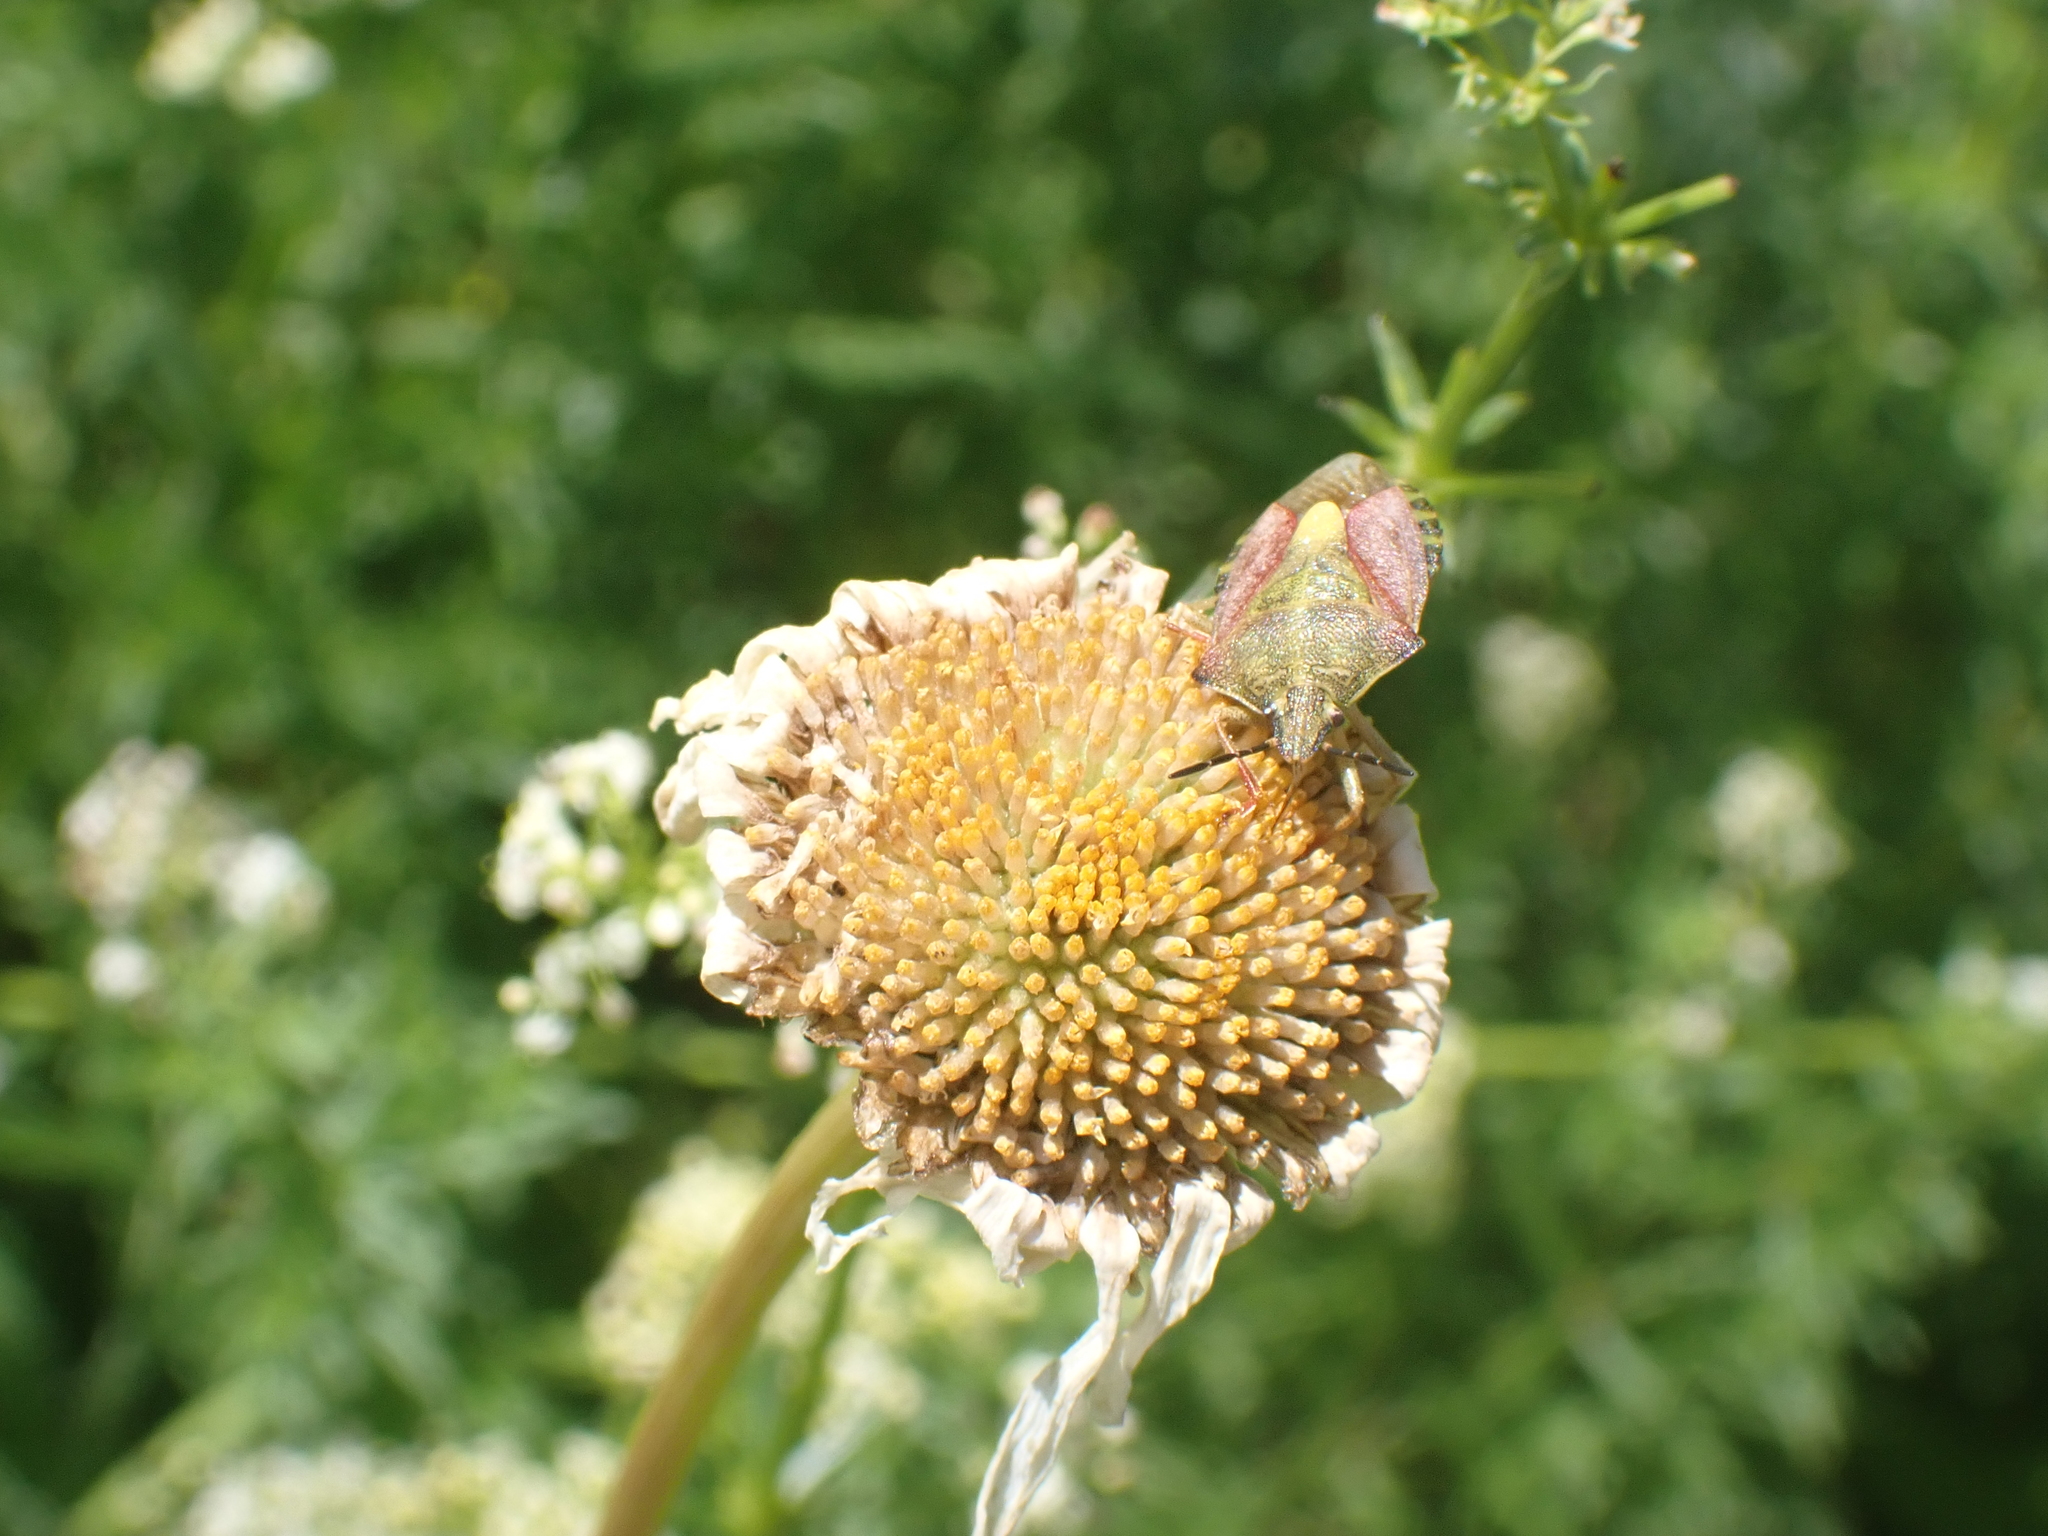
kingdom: Animalia
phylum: Arthropoda
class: Insecta
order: Hemiptera
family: Pentatomidae
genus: Carpocoris
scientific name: Carpocoris purpureipennis
